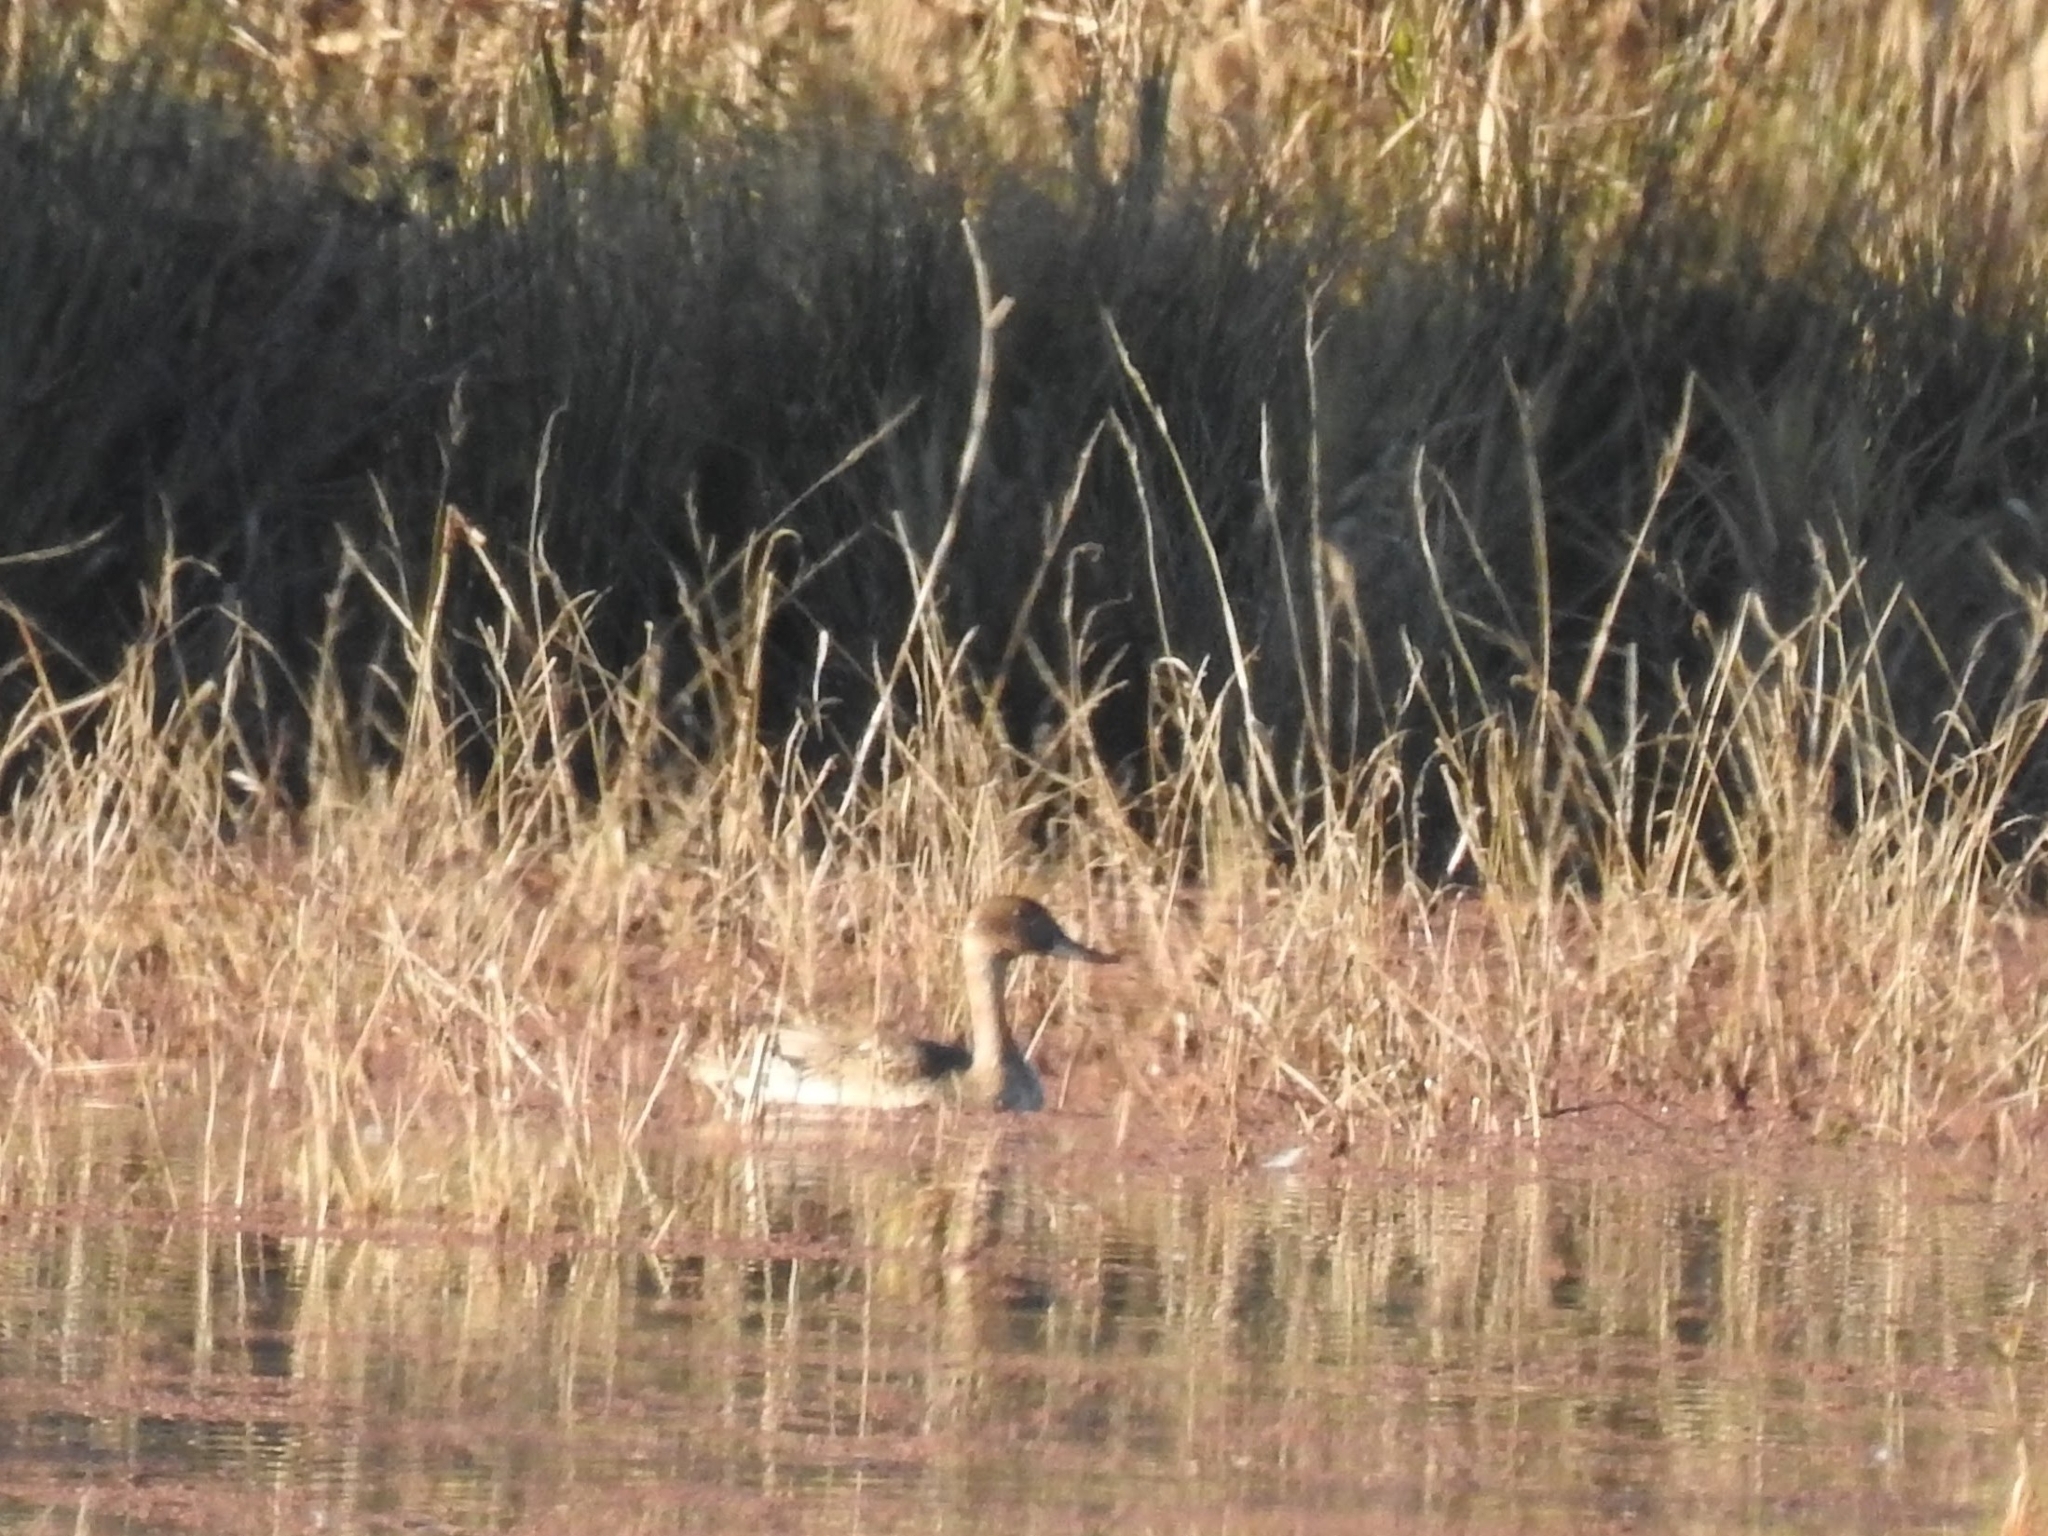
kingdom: Animalia
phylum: Chordata
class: Aves
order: Anseriformes
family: Anatidae
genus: Anas
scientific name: Anas acuta
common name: Northern pintail
